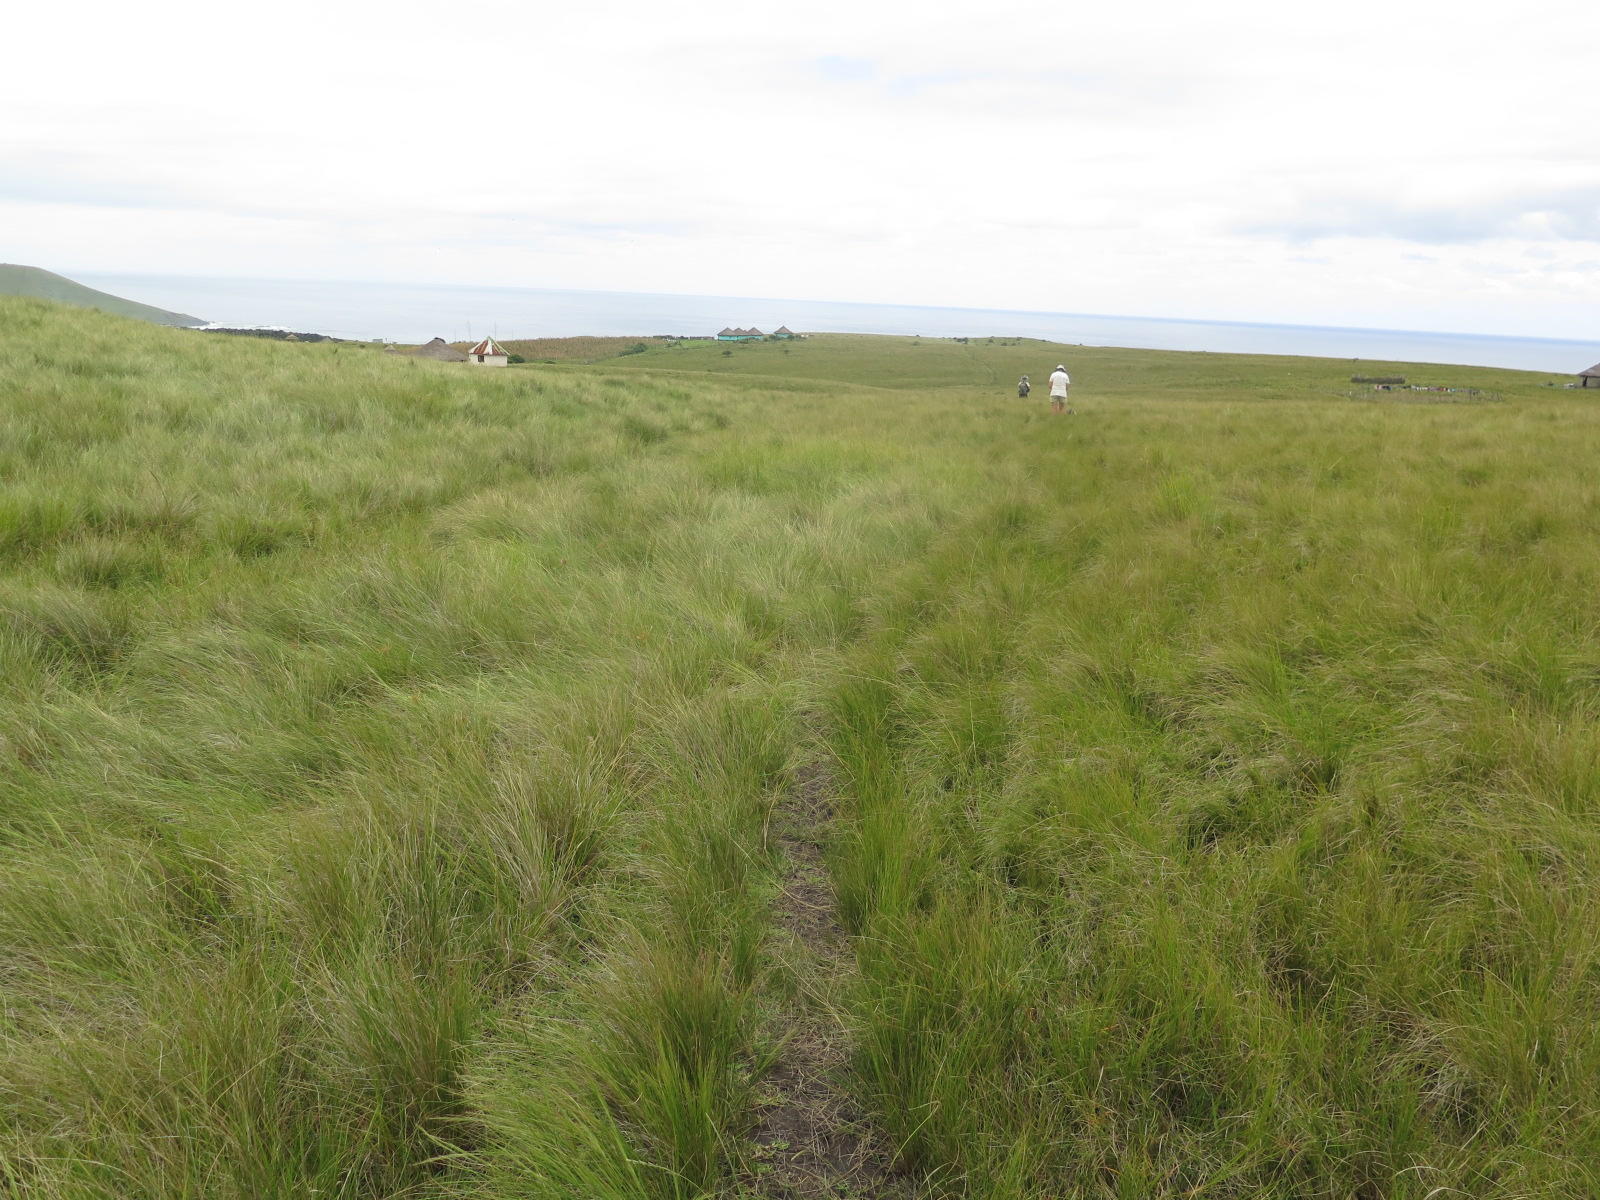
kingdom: Plantae
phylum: Tracheophyta
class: Liliopsida
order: Poales
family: Poaceae
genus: Aristida
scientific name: Aristida junciformis
